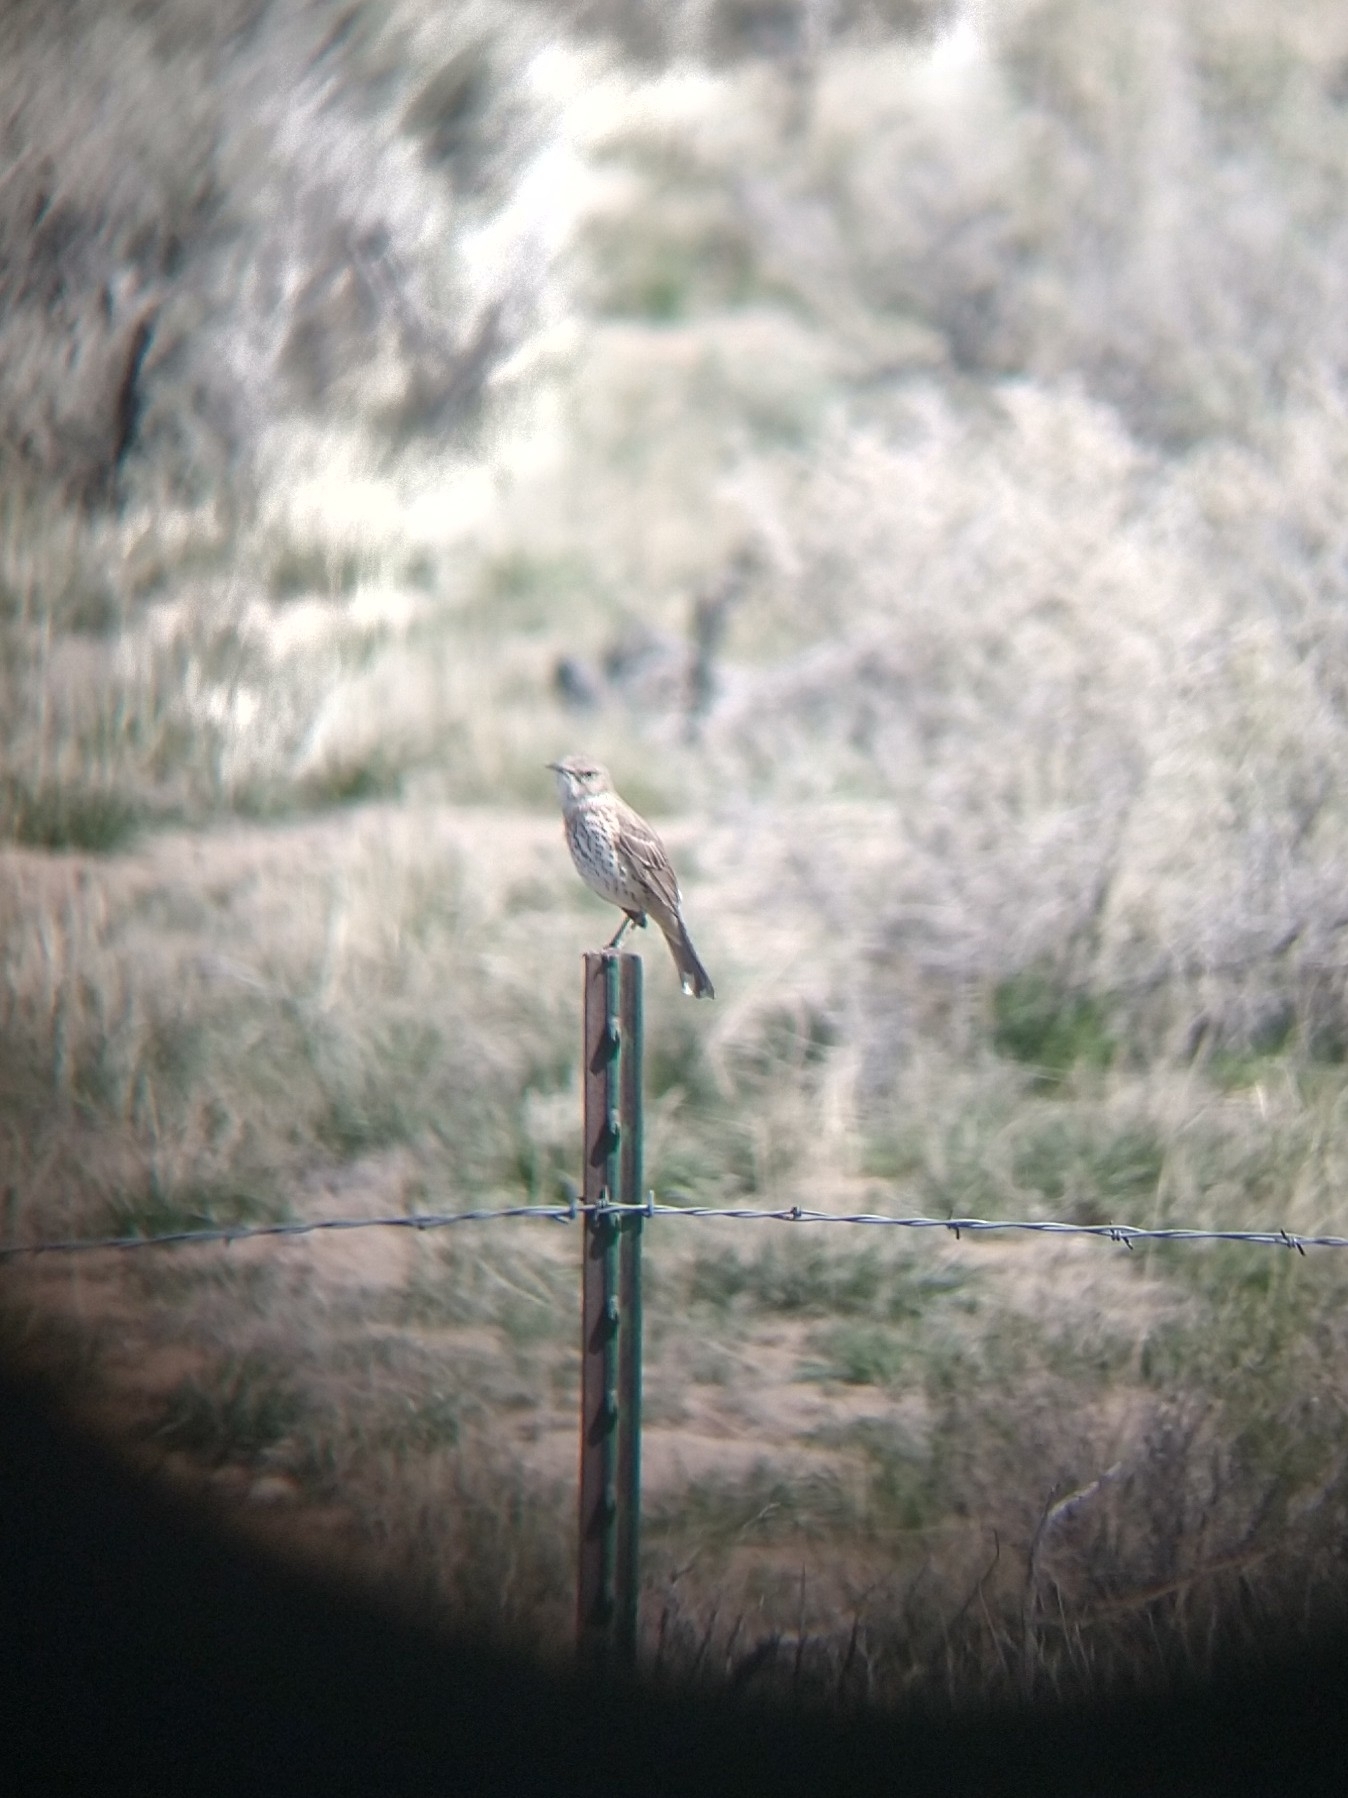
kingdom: Animalia
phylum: Chordata
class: Aves
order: Passeriformes
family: Mimidae
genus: Oreoscoptes
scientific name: Oreoscoptes montanus
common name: Sage thrasher
